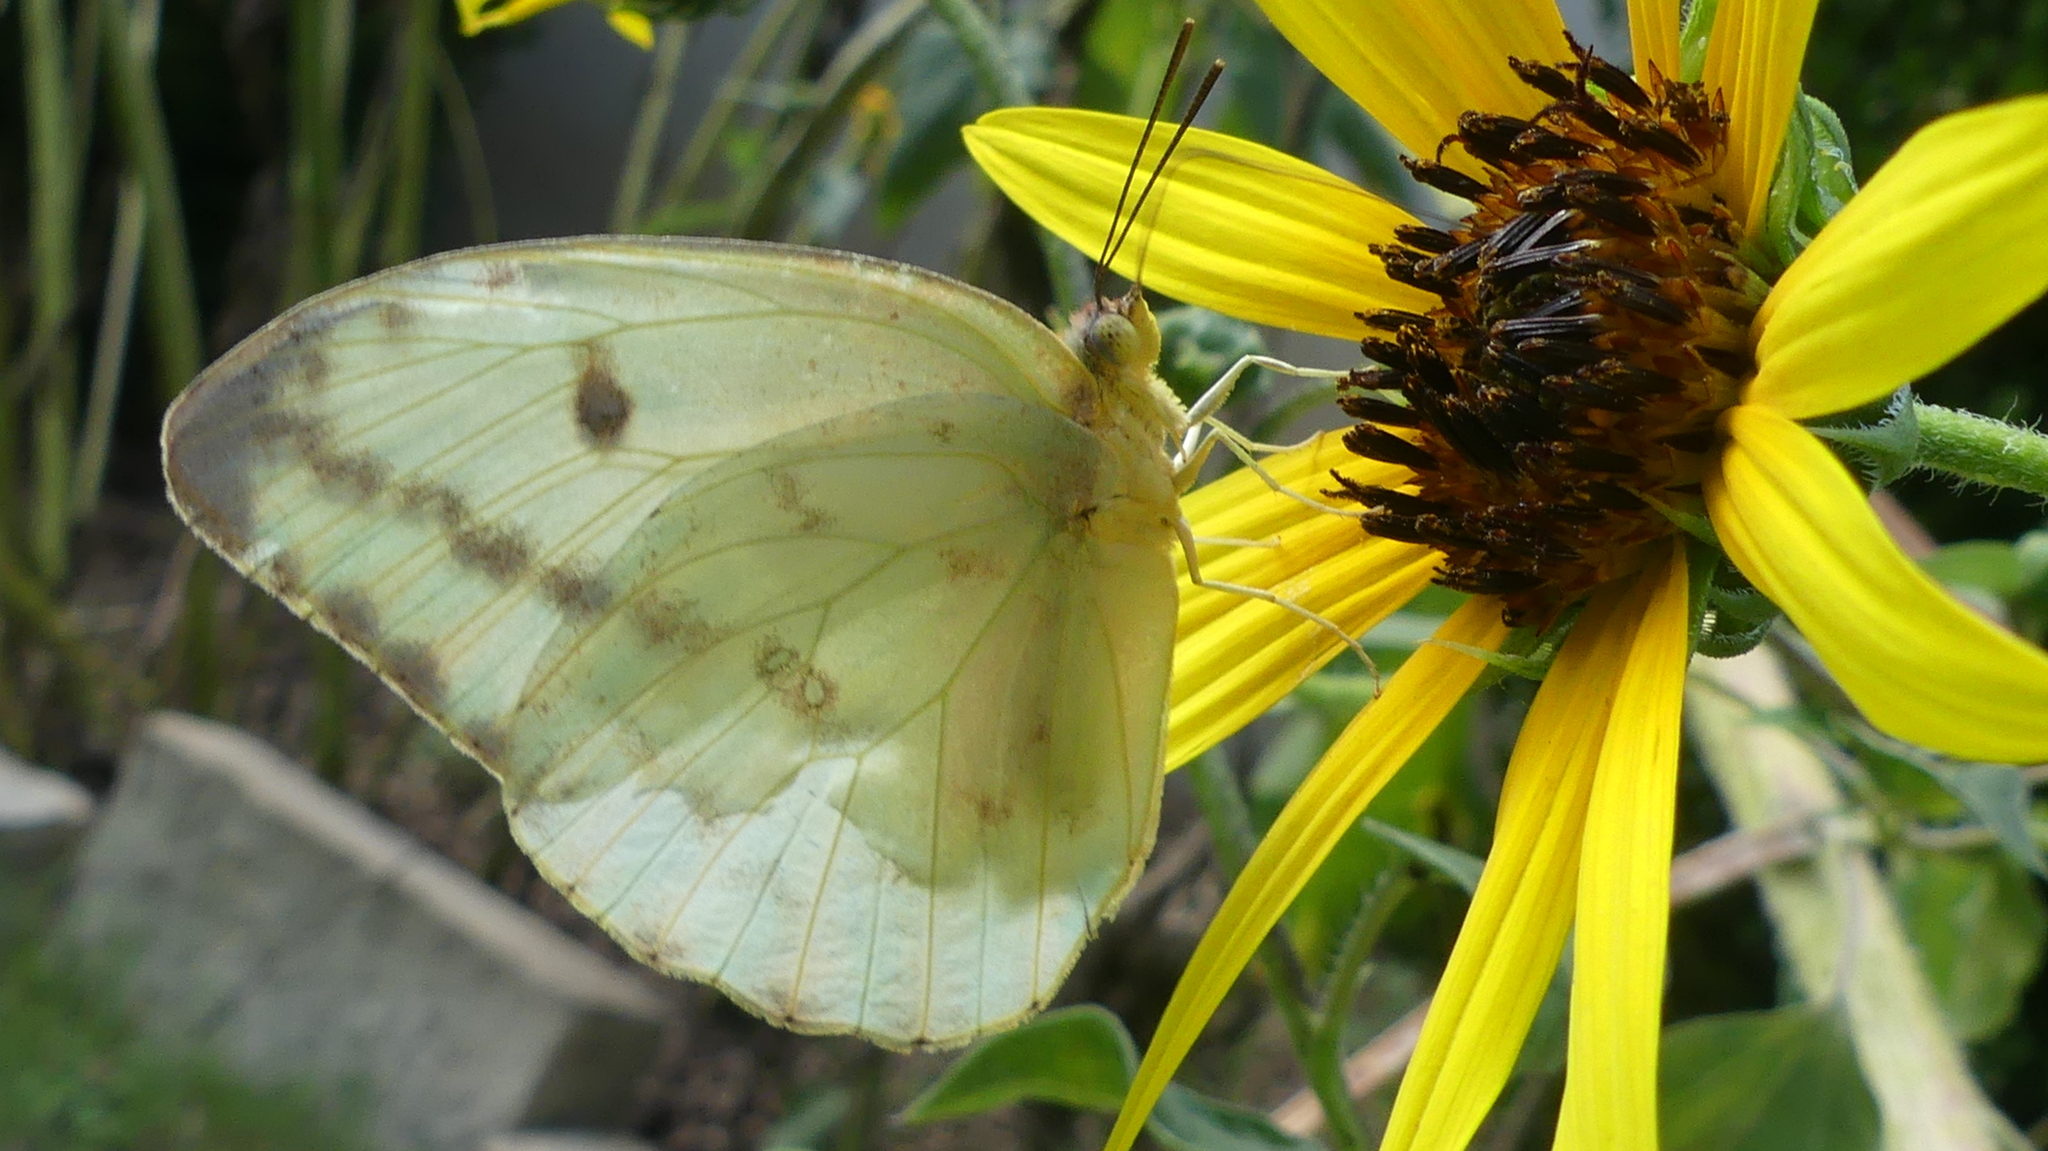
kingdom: Animalia
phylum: Arthropoda
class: Insecta
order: Lepidoptera
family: Pieridae
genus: Phoebis
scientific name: Phoebis agarithe
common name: Large orange sulphur
